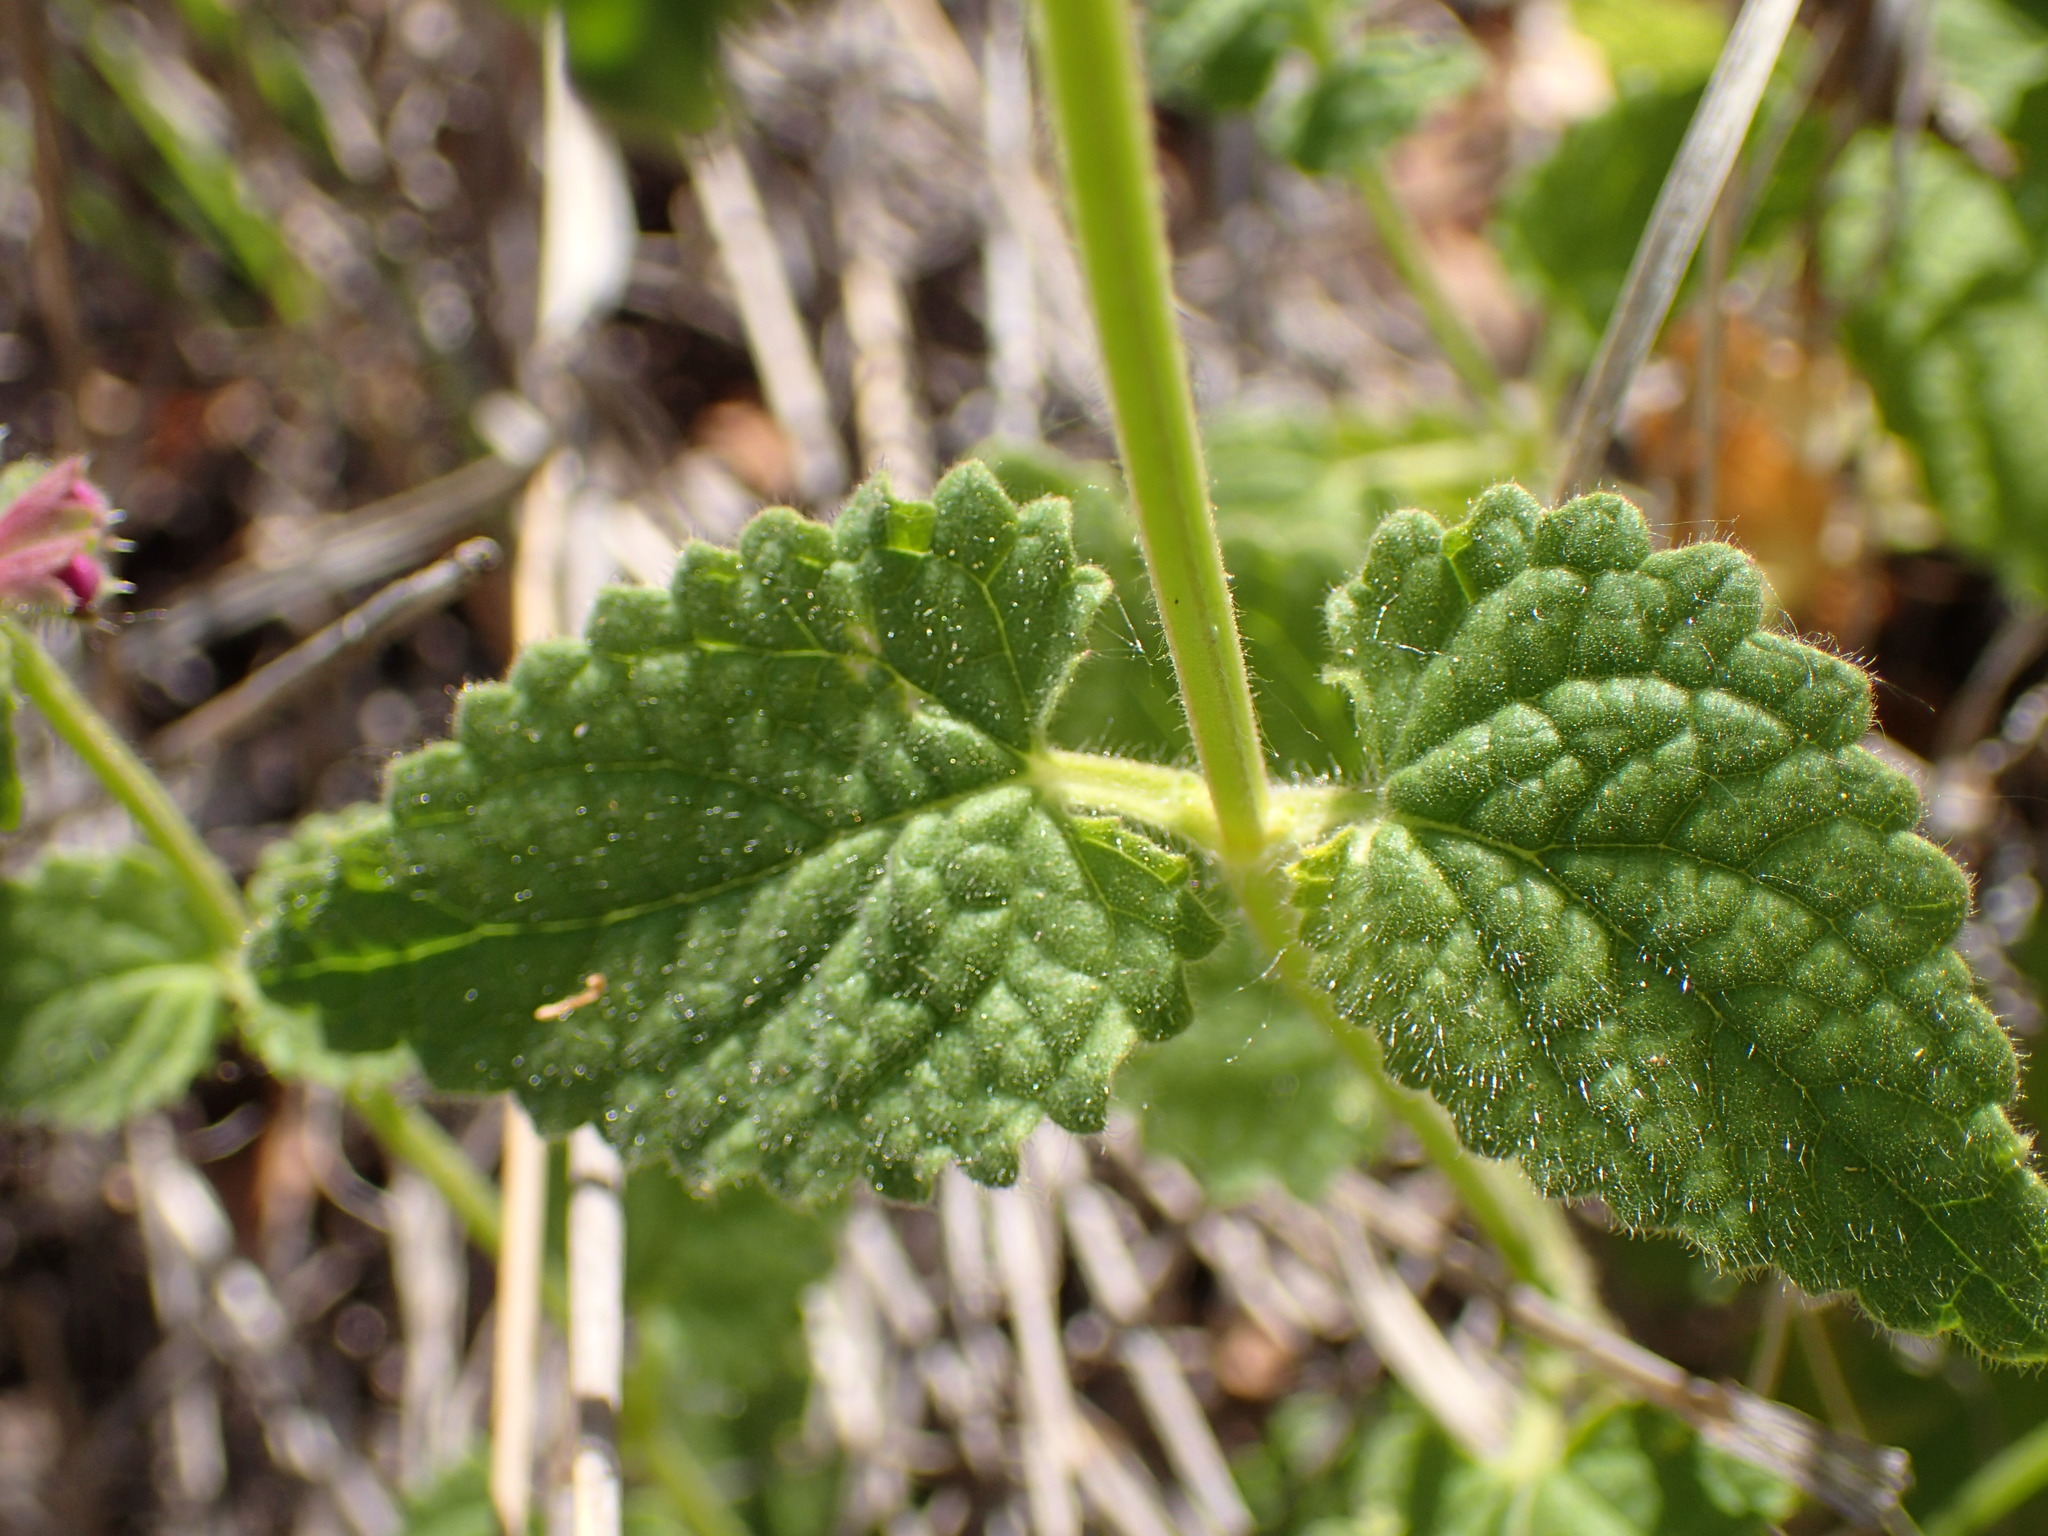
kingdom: Plantae
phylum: Tracheophyta
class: Magnoliopsida
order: Lamiales
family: Lamiaceae
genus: Stachys
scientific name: Stachys bullata
